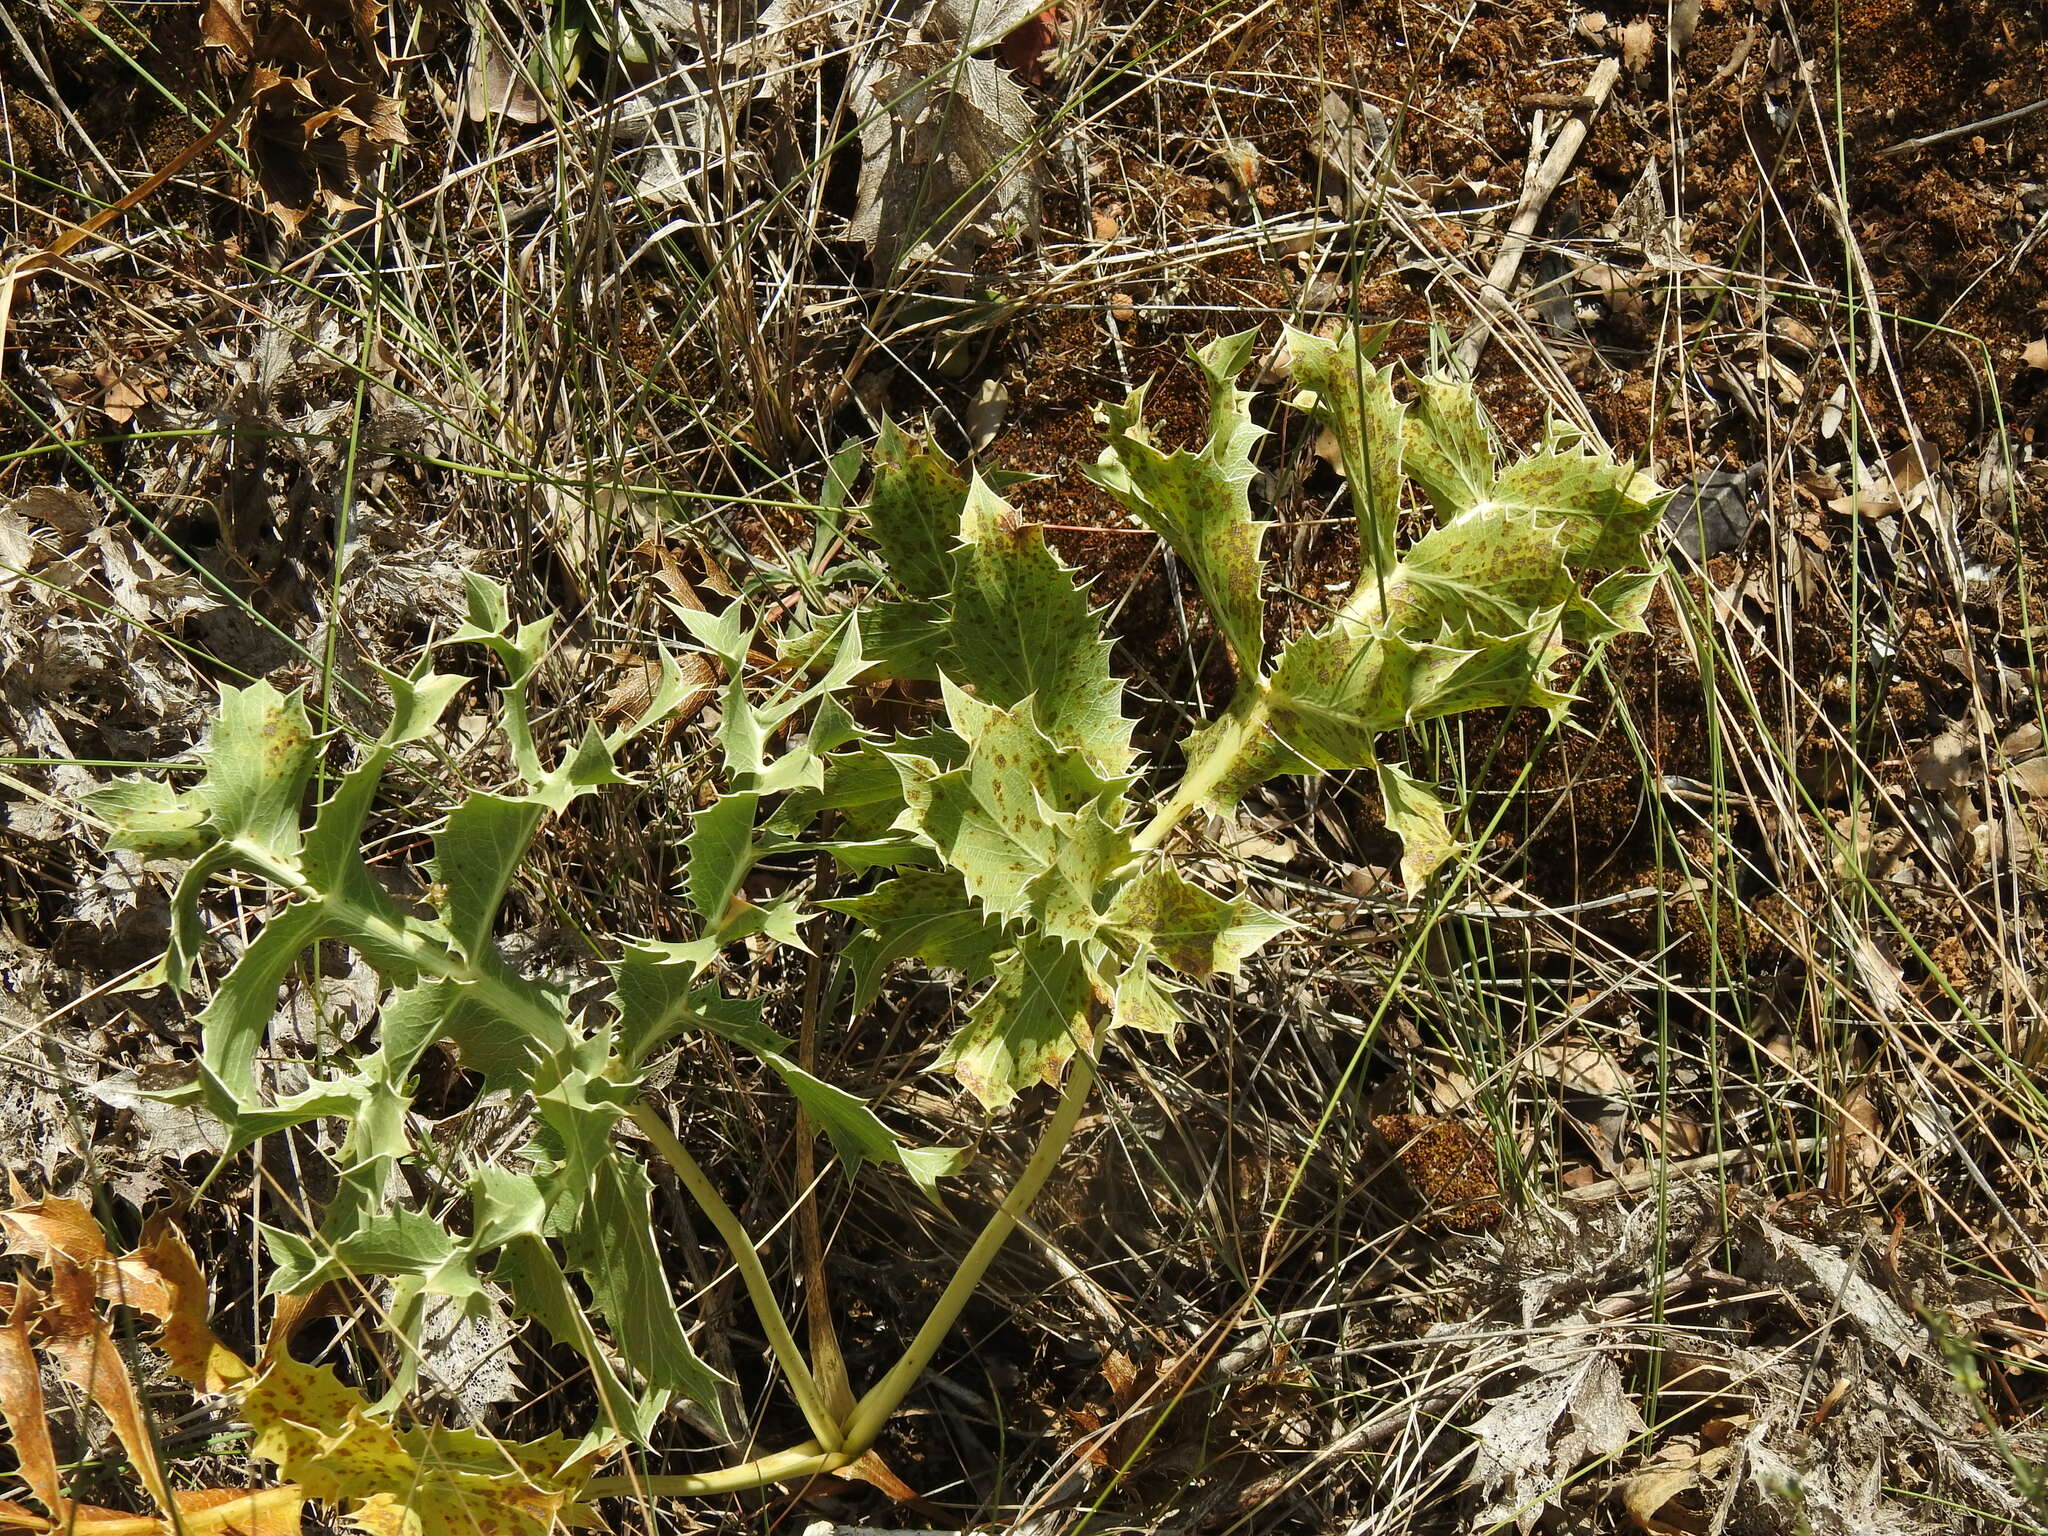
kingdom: Plantae
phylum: Tracheophyta
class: Magnoliopsida
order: Apiales
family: Apiaceae
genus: Eryngium
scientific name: Eryngium campestre
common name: Field eryngo
